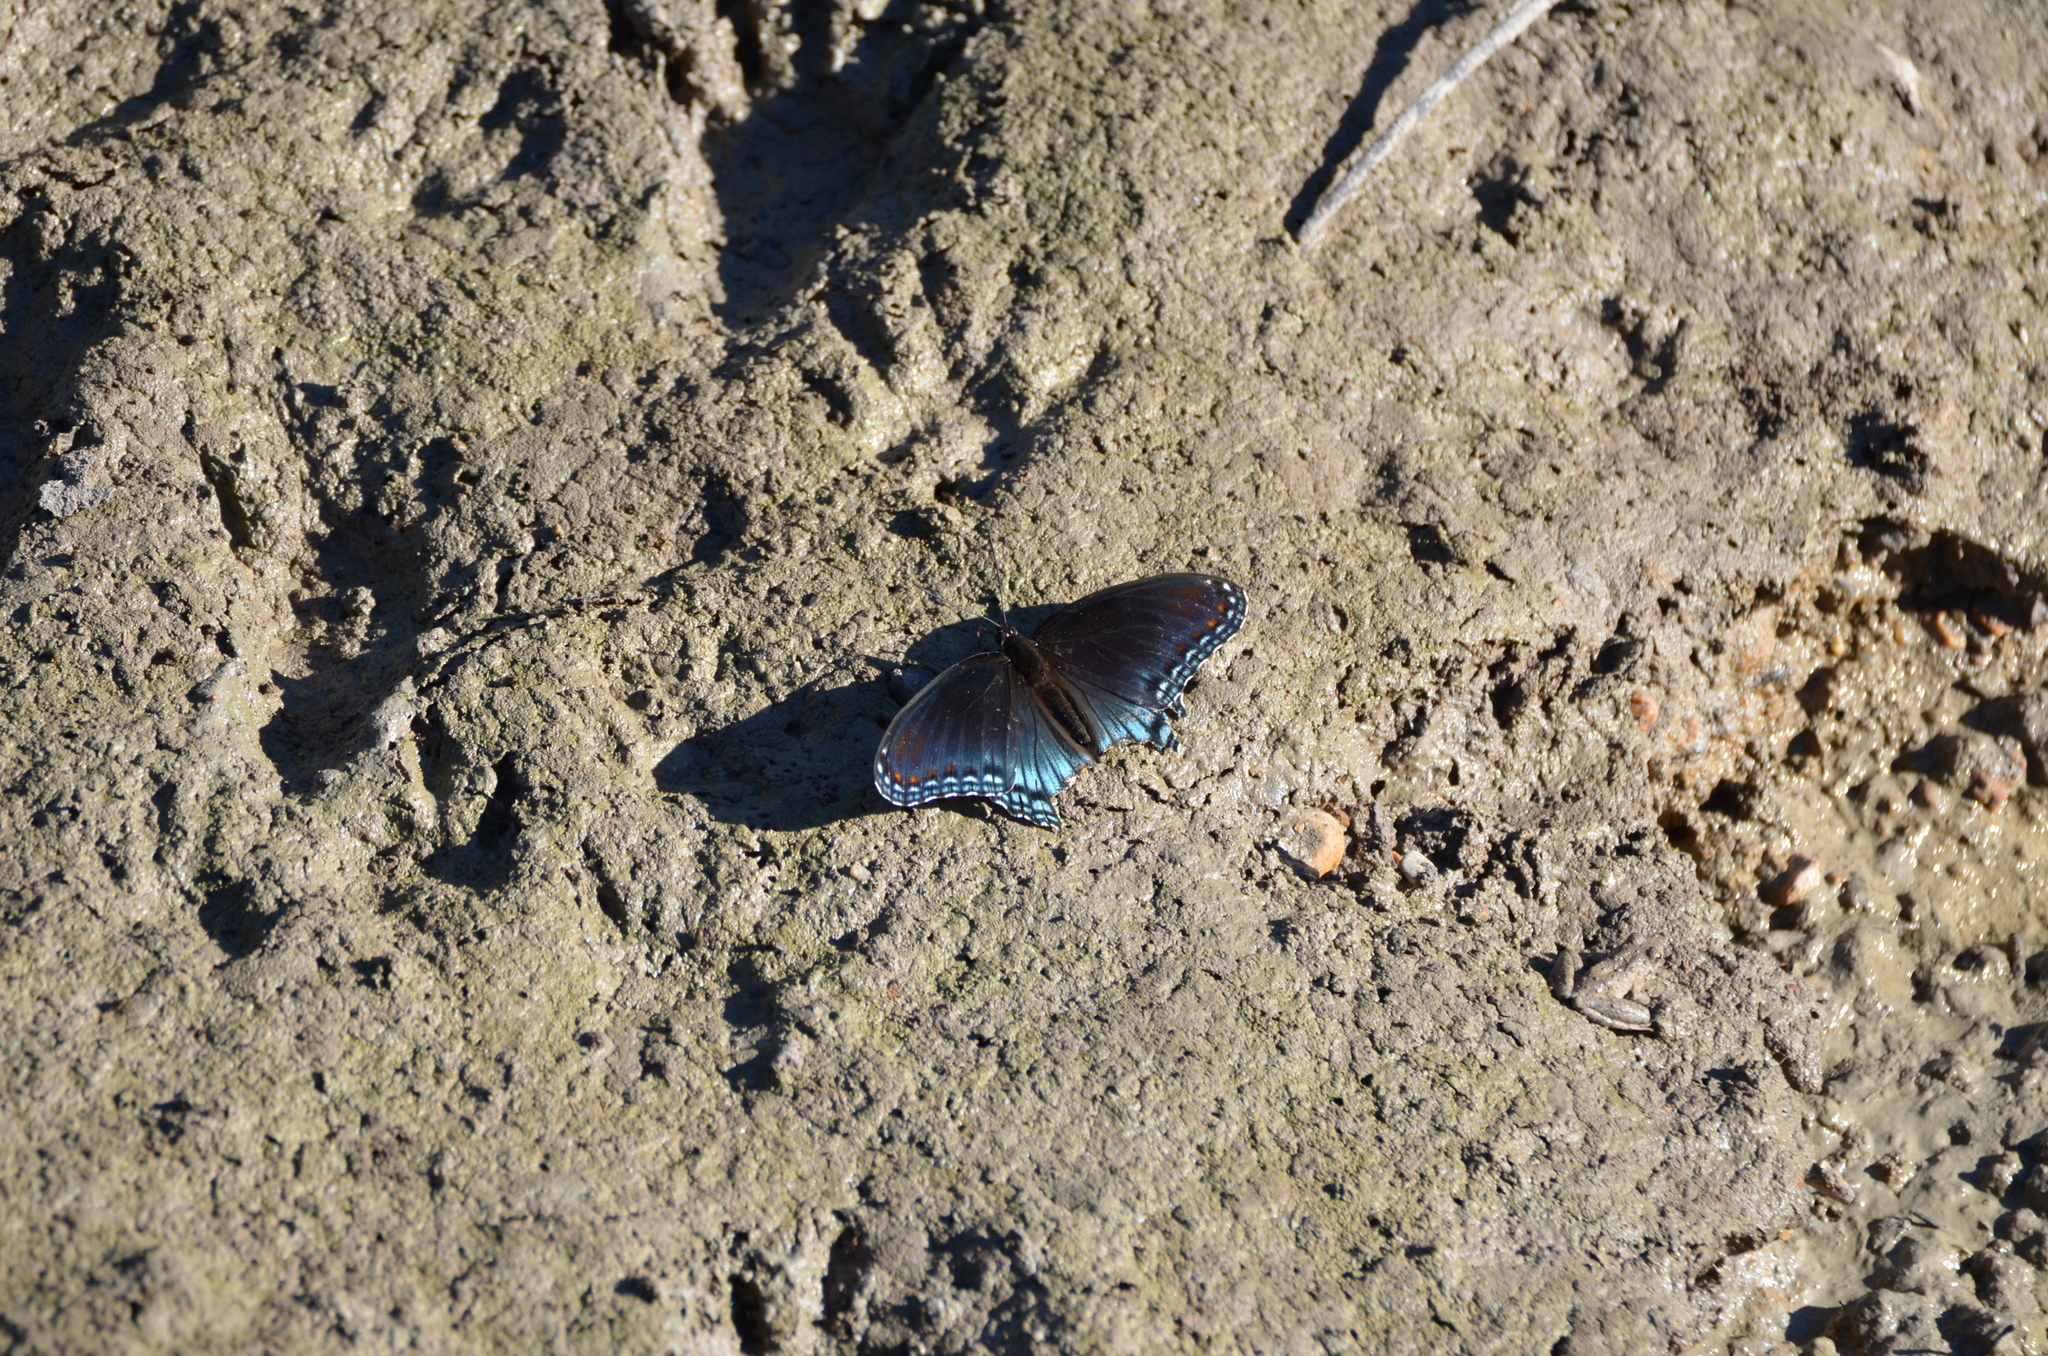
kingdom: Animalia
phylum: Arthropoda
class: Insecta
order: Lepidoptera
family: Nymphalidae
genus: Limenitis
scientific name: Limenitis astyanax
